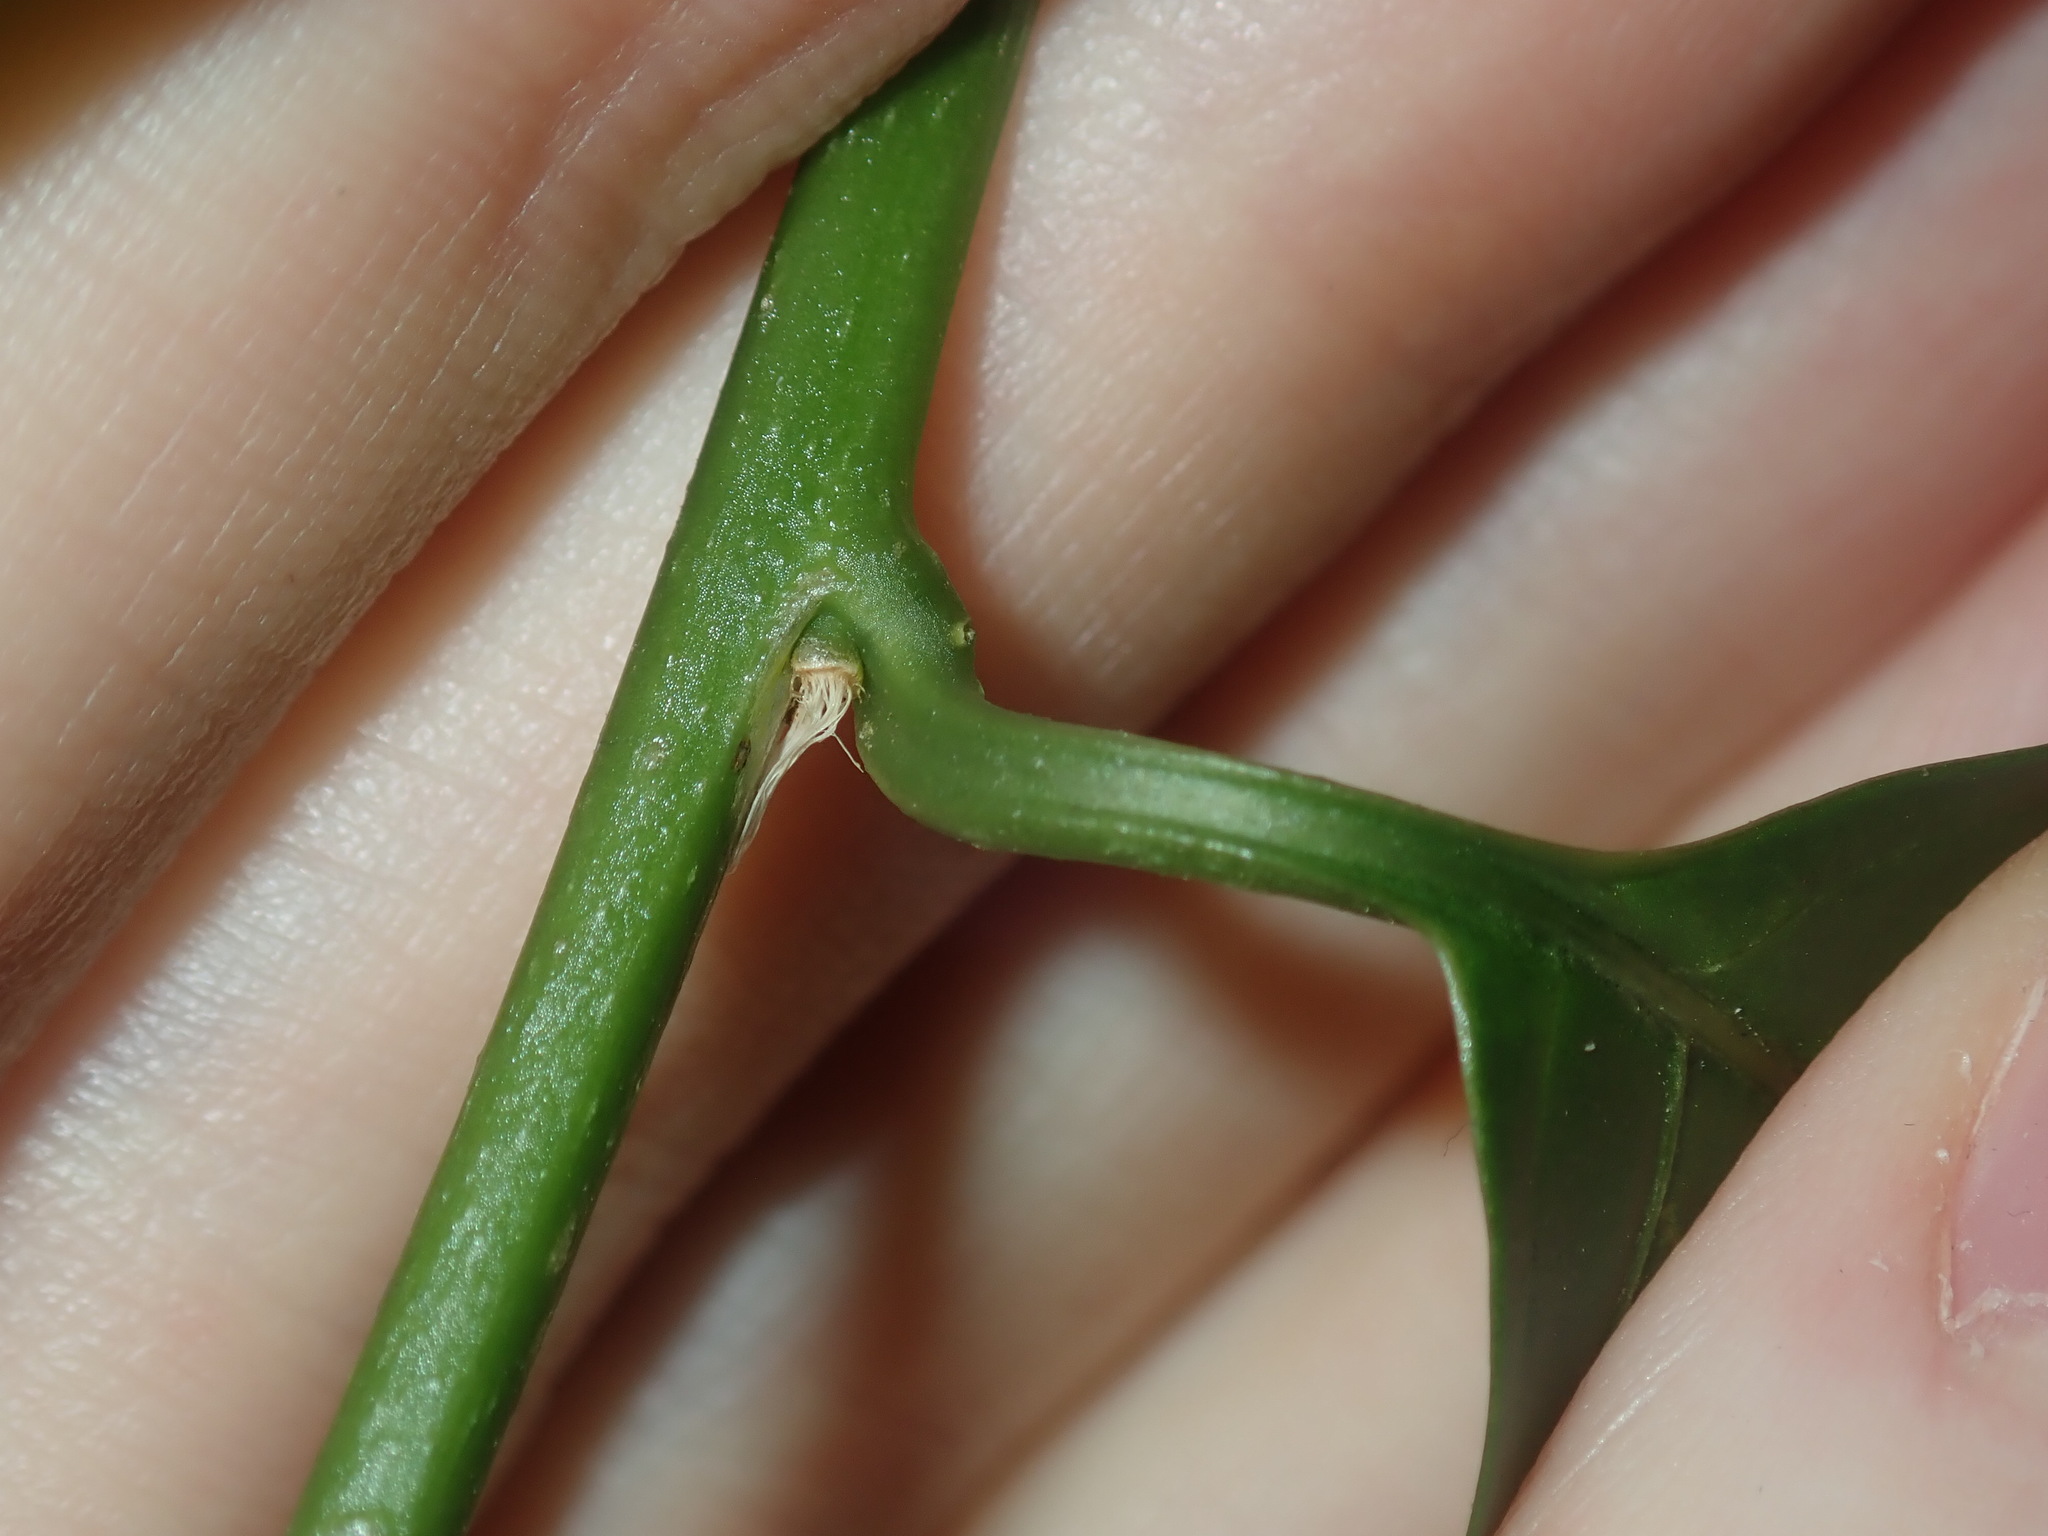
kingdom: Plantae
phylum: Tracheophyta
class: Magnoliopsida
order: Solanales
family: Solanaceae
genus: Cestrum
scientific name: Cestrum nocturnum
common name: Night jessamine
